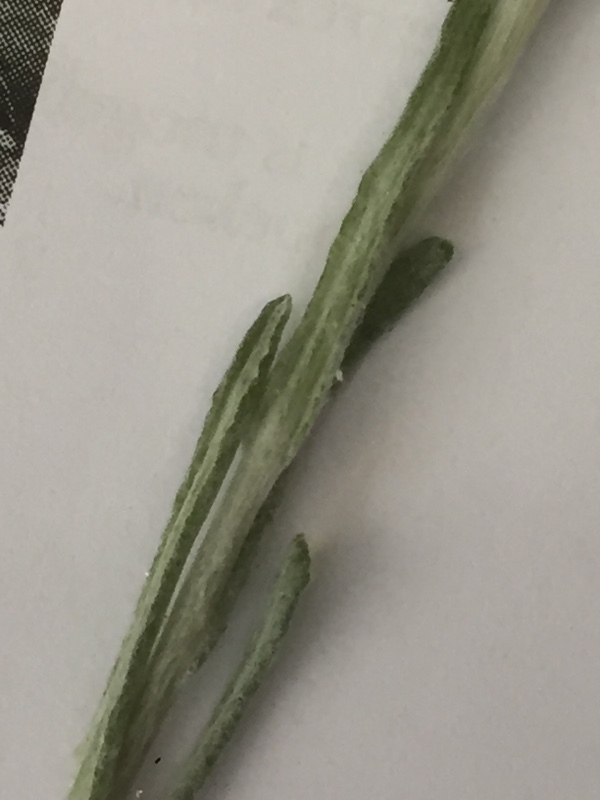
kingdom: Plantae
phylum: Tracheophyta
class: Magnoliopsida
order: Asterales
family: Asteraceae
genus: Helichrysum
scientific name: Helichrysum luteoalbum
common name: Daisy
